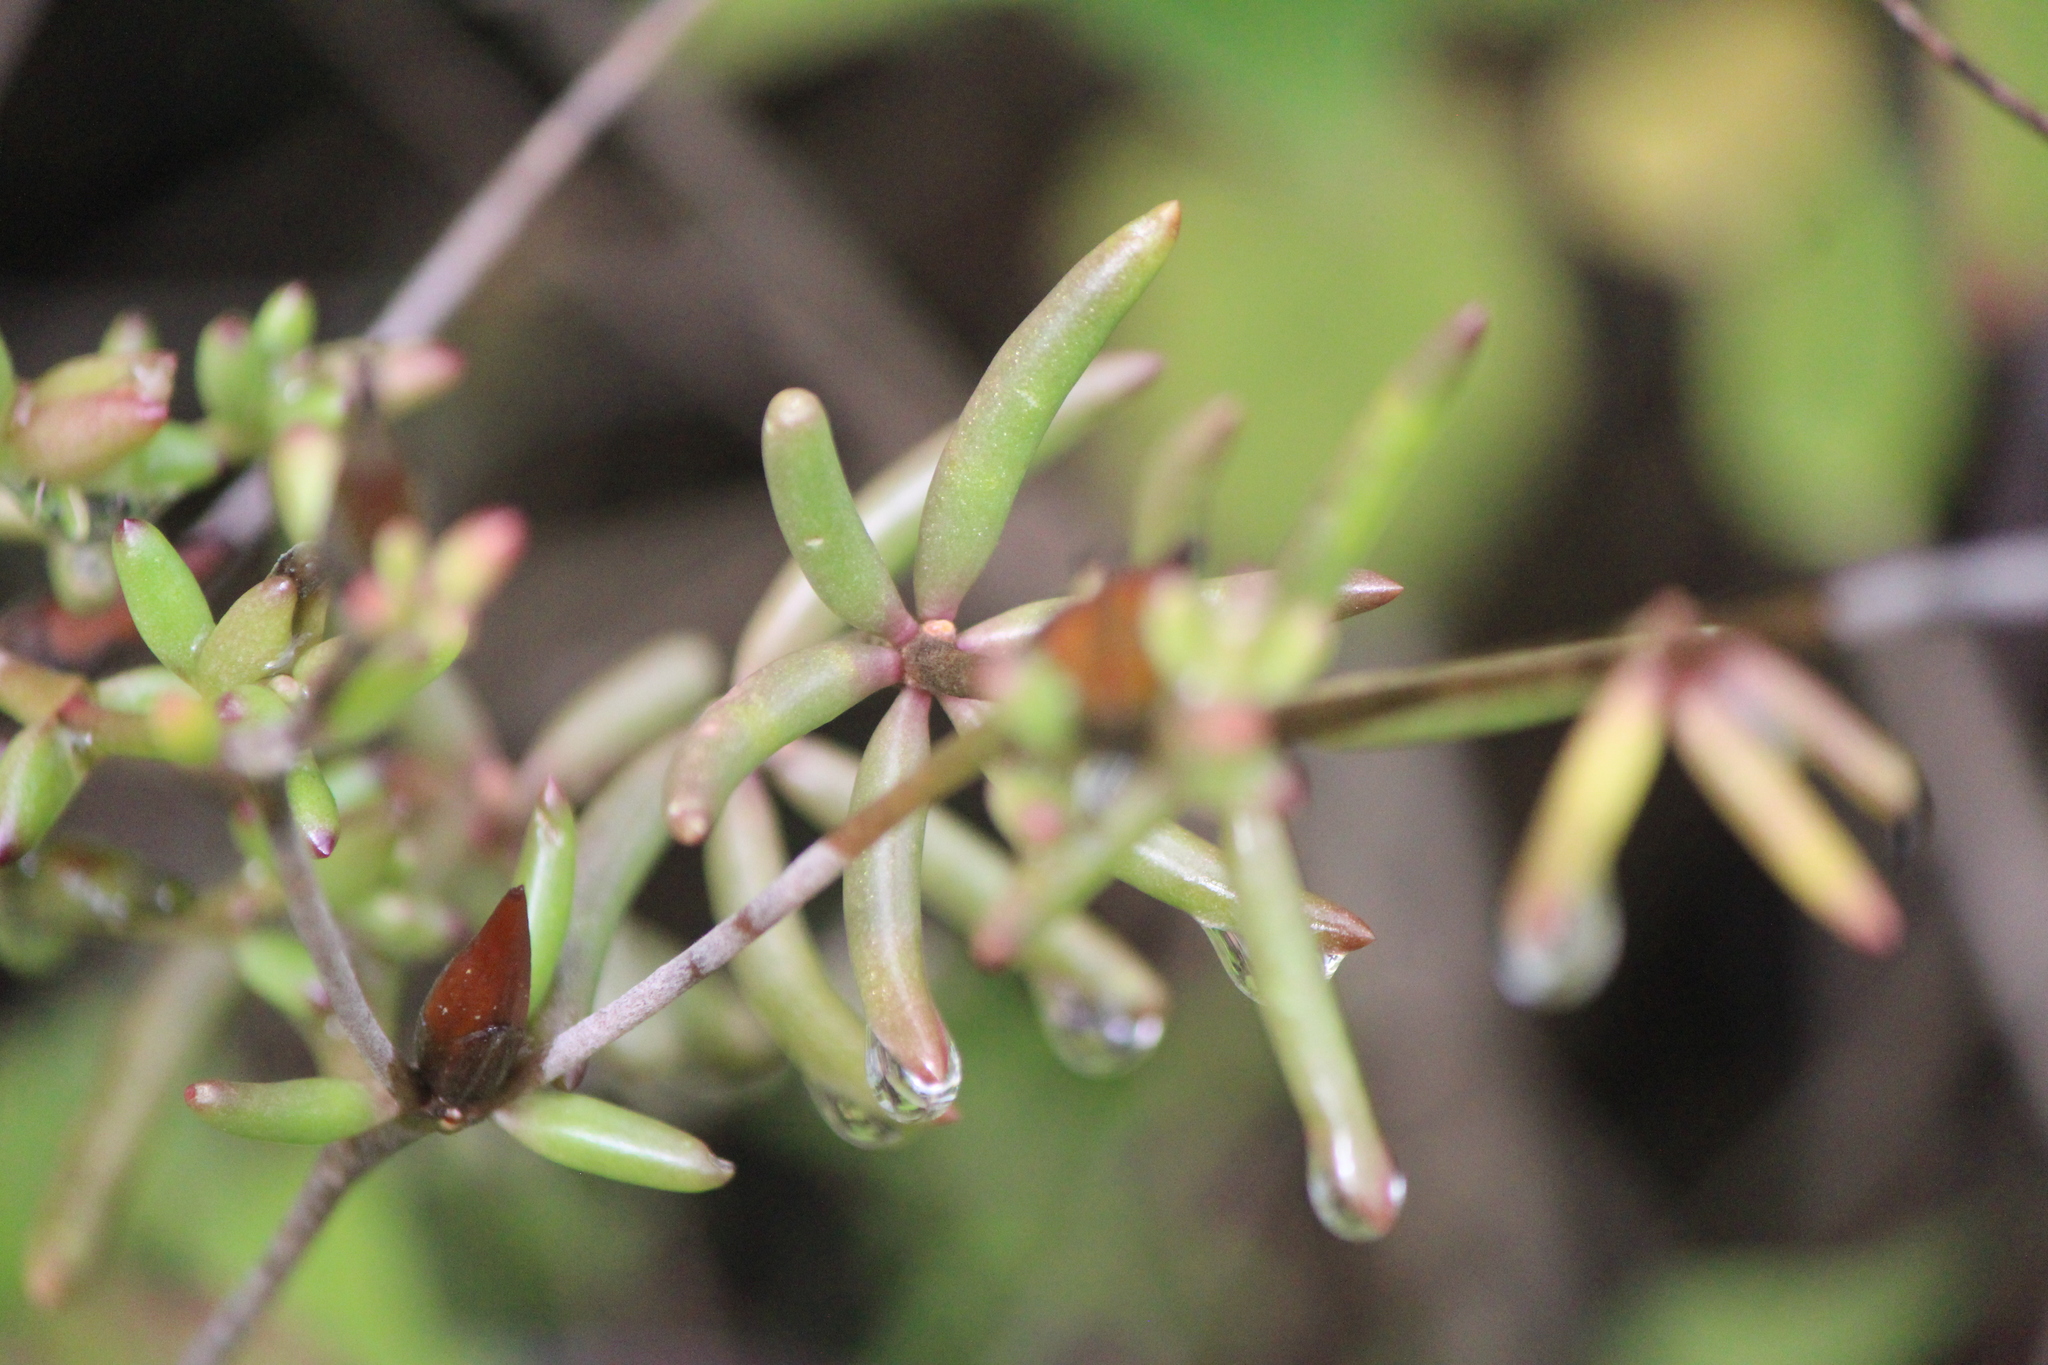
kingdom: Plantae
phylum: Tracheophyta
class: Magnoliopsida
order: Caryophyllales
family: Anacampserotaceae
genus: Grahamia
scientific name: Grahamia frutescens
